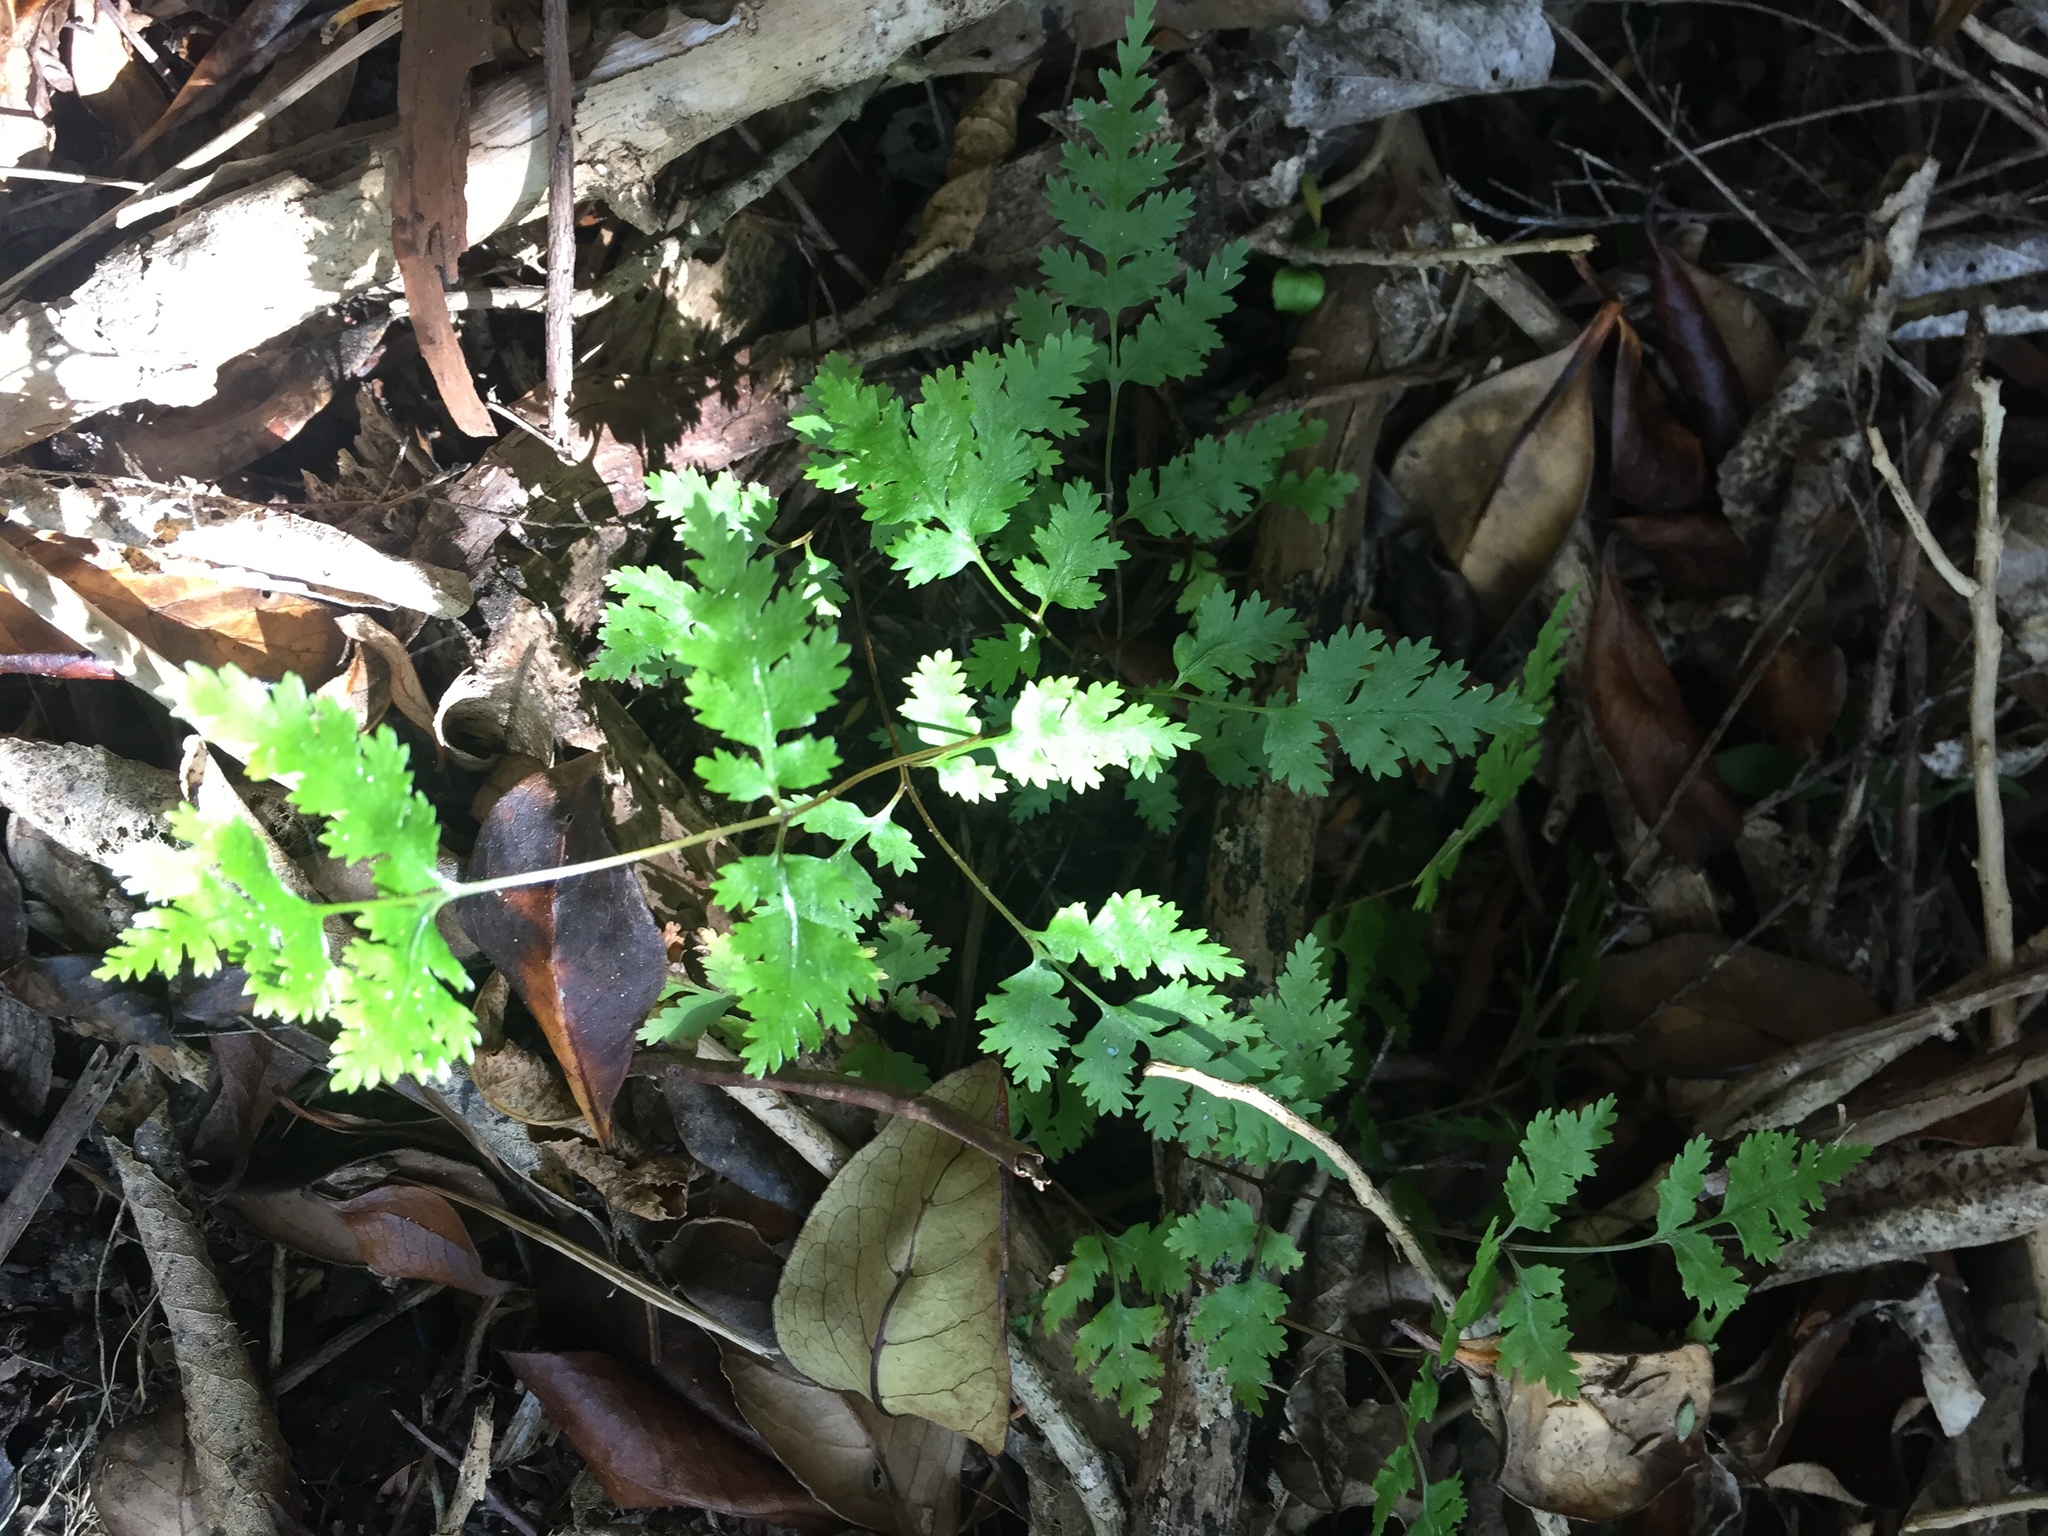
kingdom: Plantae
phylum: Tracheophyta
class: Polypodiopsida
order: Polypodiales
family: Pteridaceae
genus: Pteris
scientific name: Pteris saxatilis
